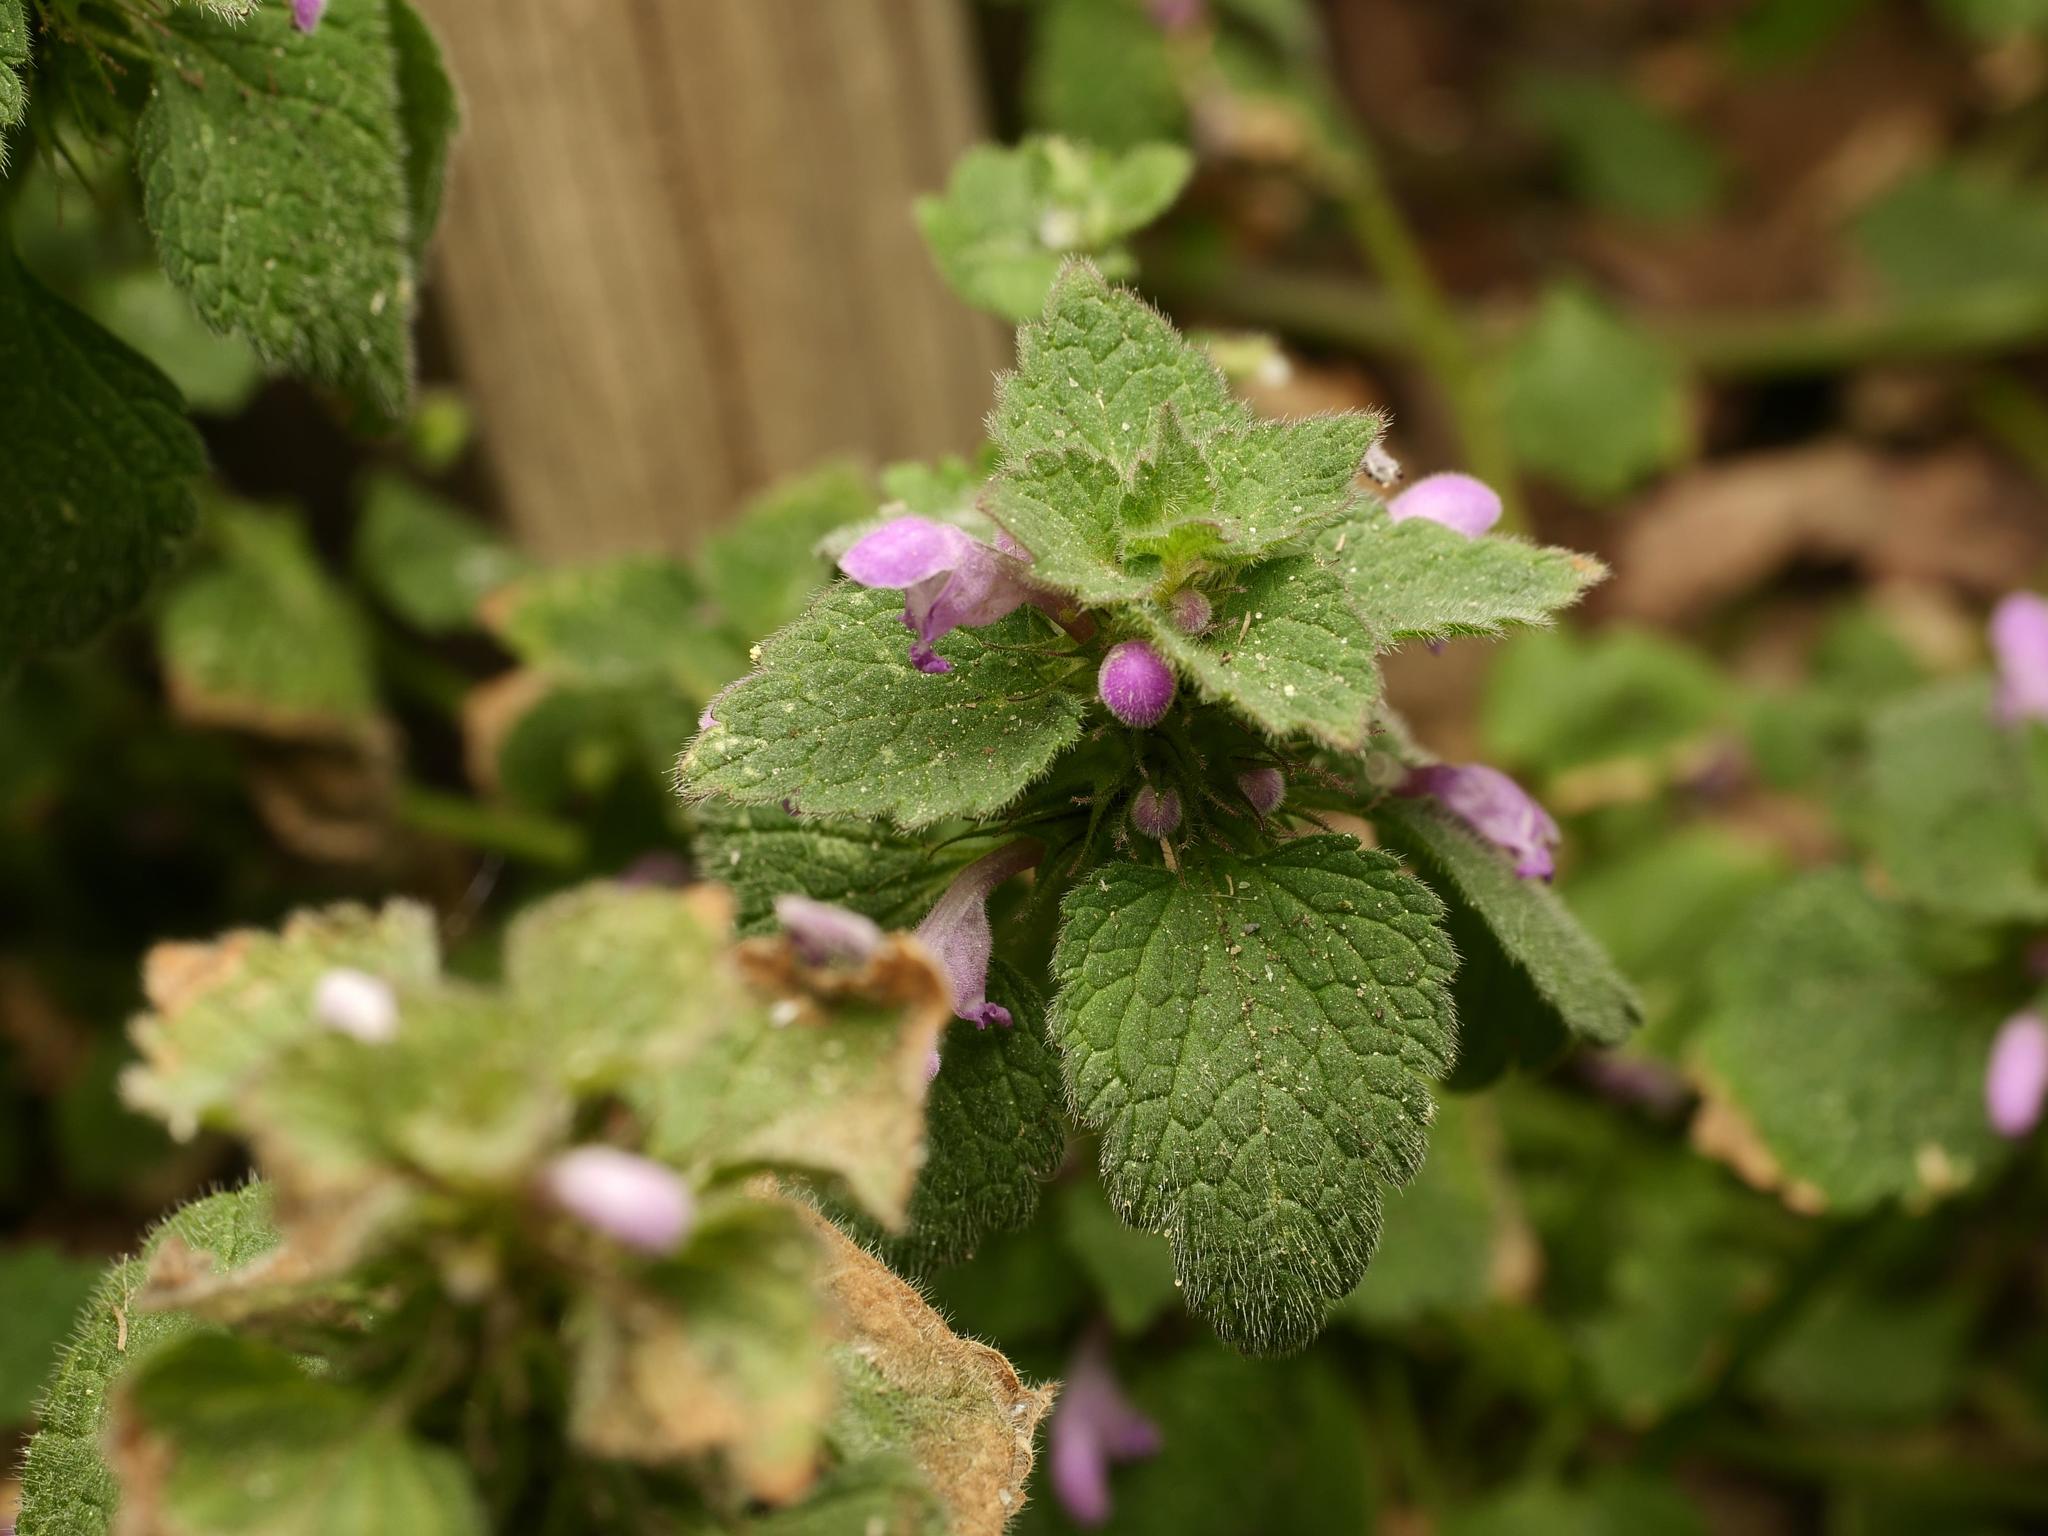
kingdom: Plantae
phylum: Tracheophyta
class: Magnoliopsida
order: Lamiales
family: Lamiaceae
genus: Lamium
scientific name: Lamium purpureum
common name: Red dead-nettle
